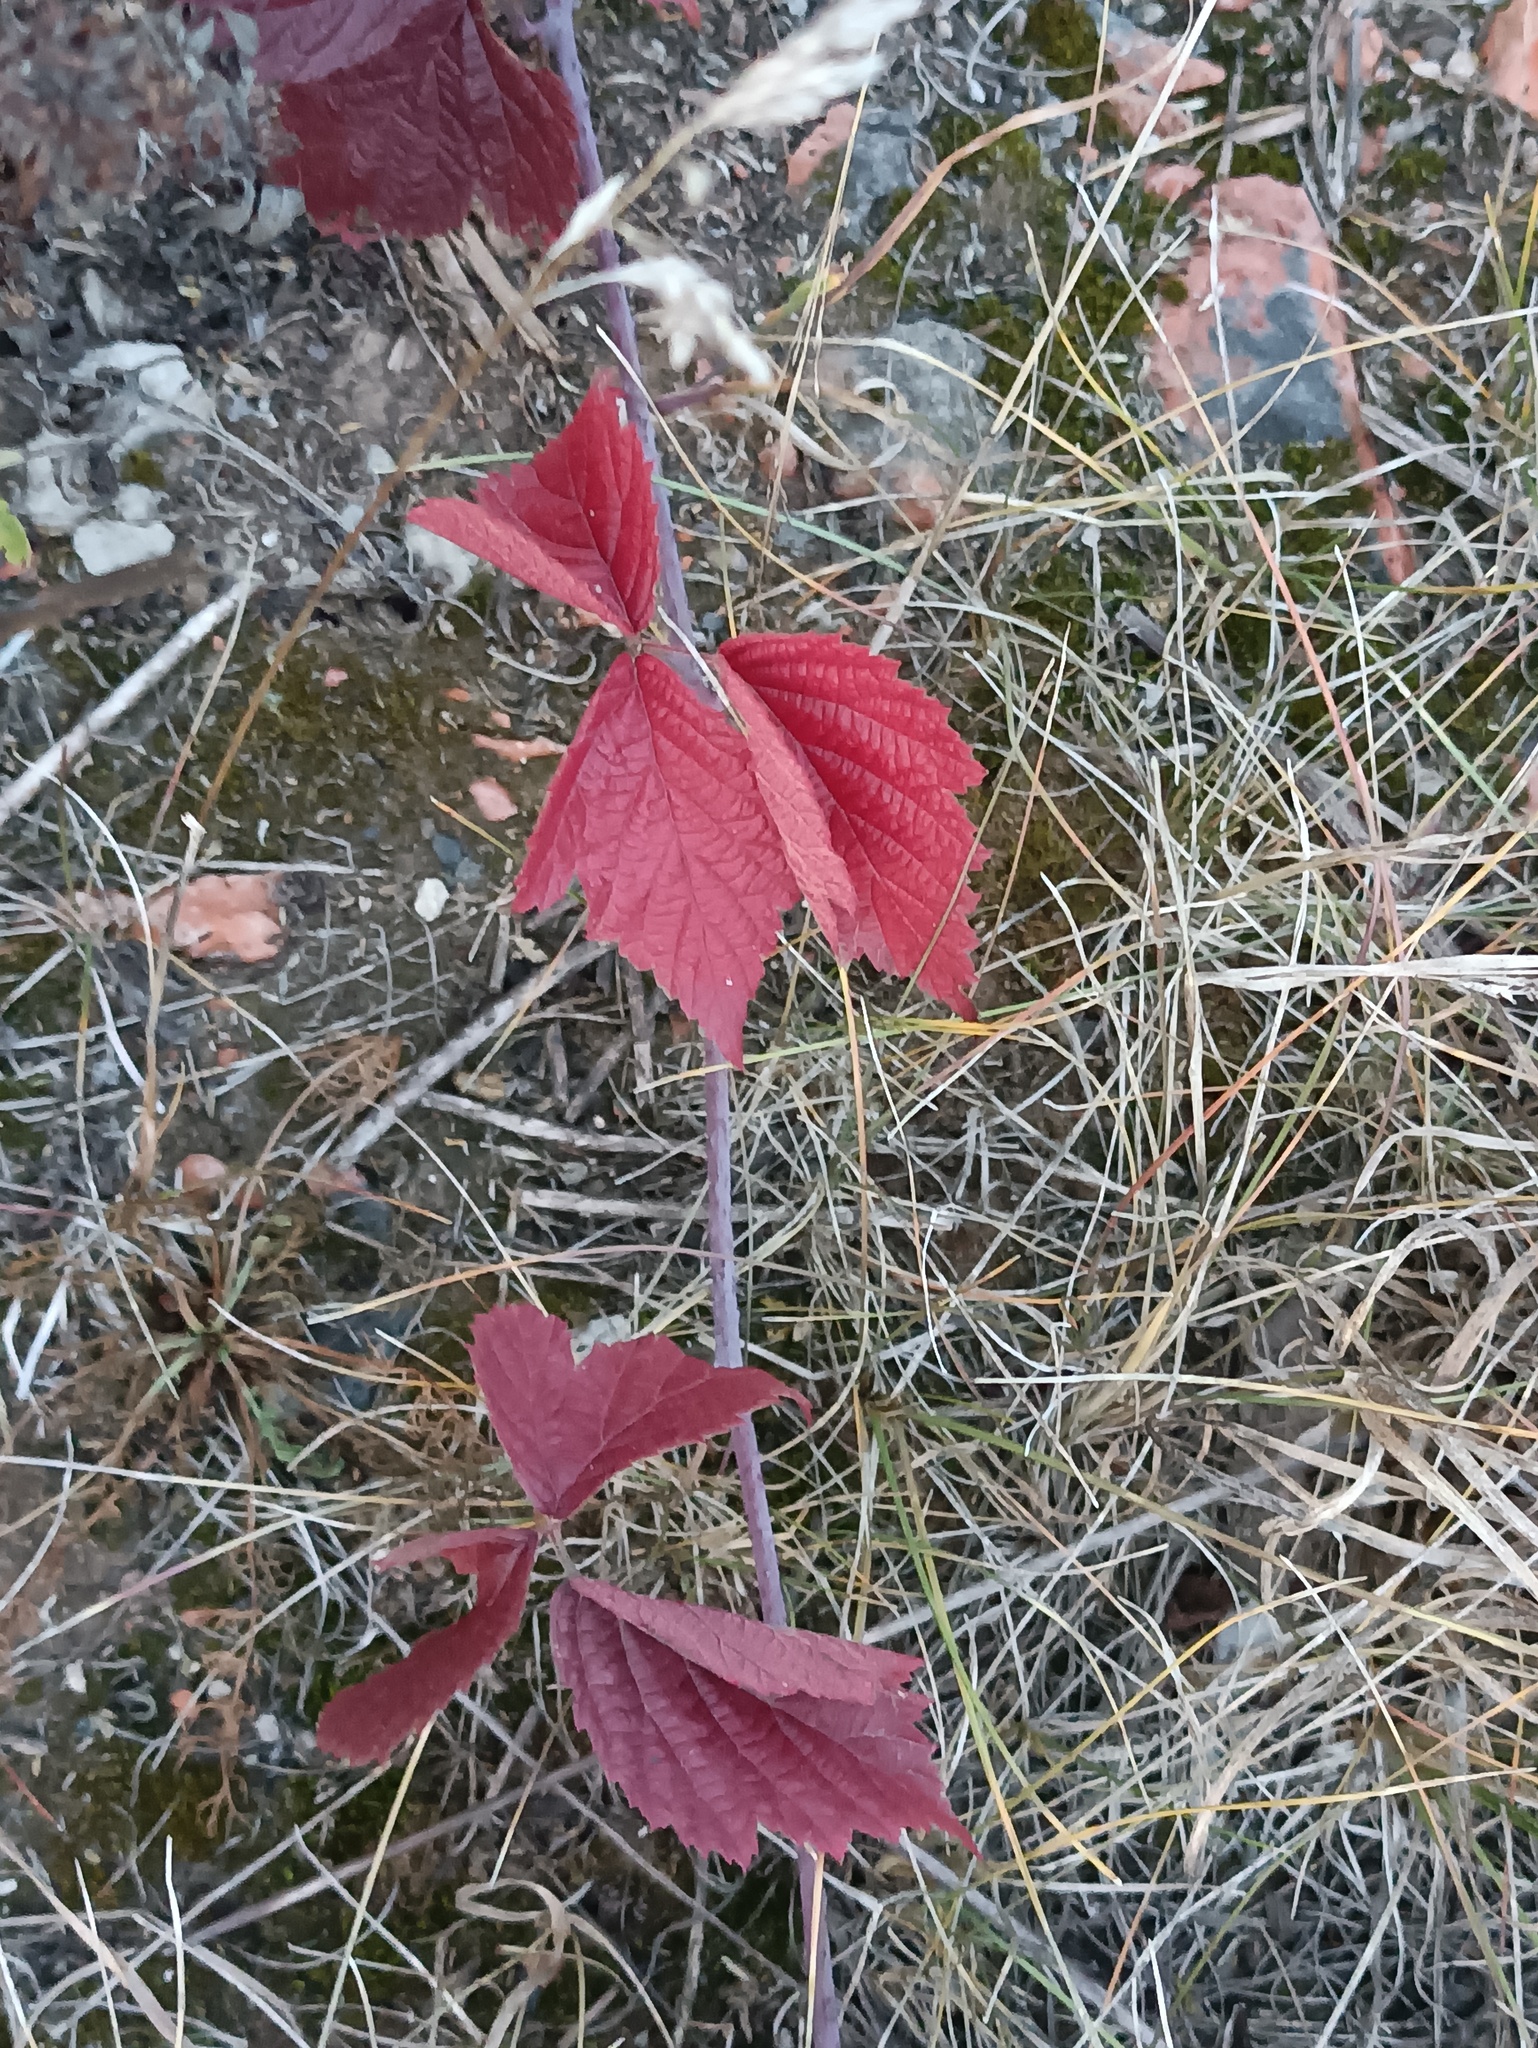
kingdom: Plantae
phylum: Tracheophyta
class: Magnoliopsida
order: Rosales
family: Rosaceae
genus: Rubus
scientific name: Rubus caesius
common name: Dewberry
